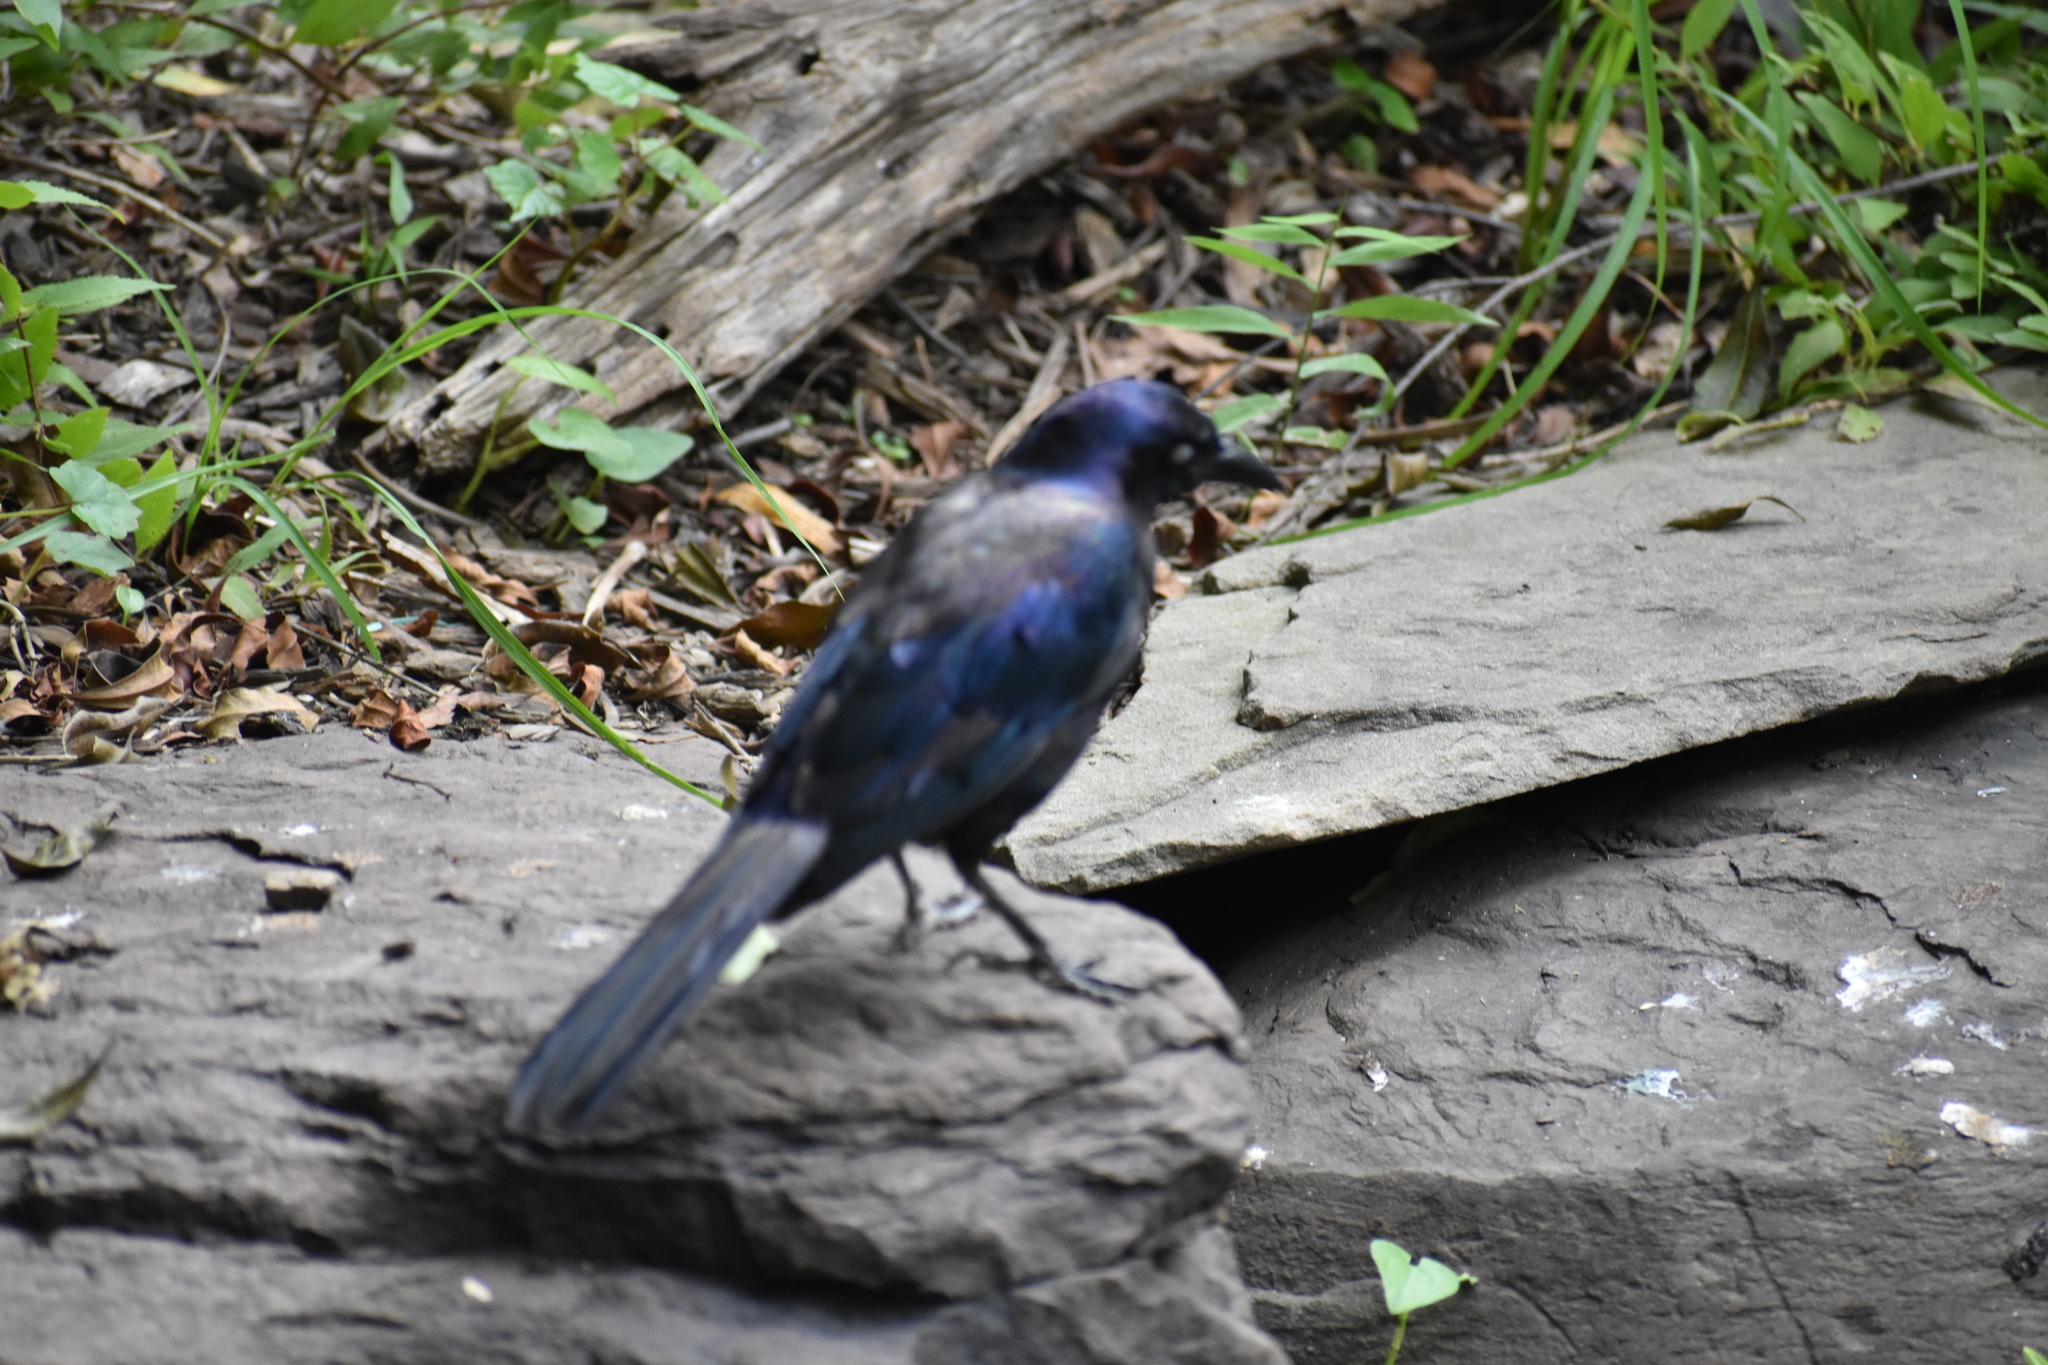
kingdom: Animalia
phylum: Chordata
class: Aves
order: Passeriformes
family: Icteridae
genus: Quiscalus
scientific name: Quiscalus quiscula
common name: Common grackle
